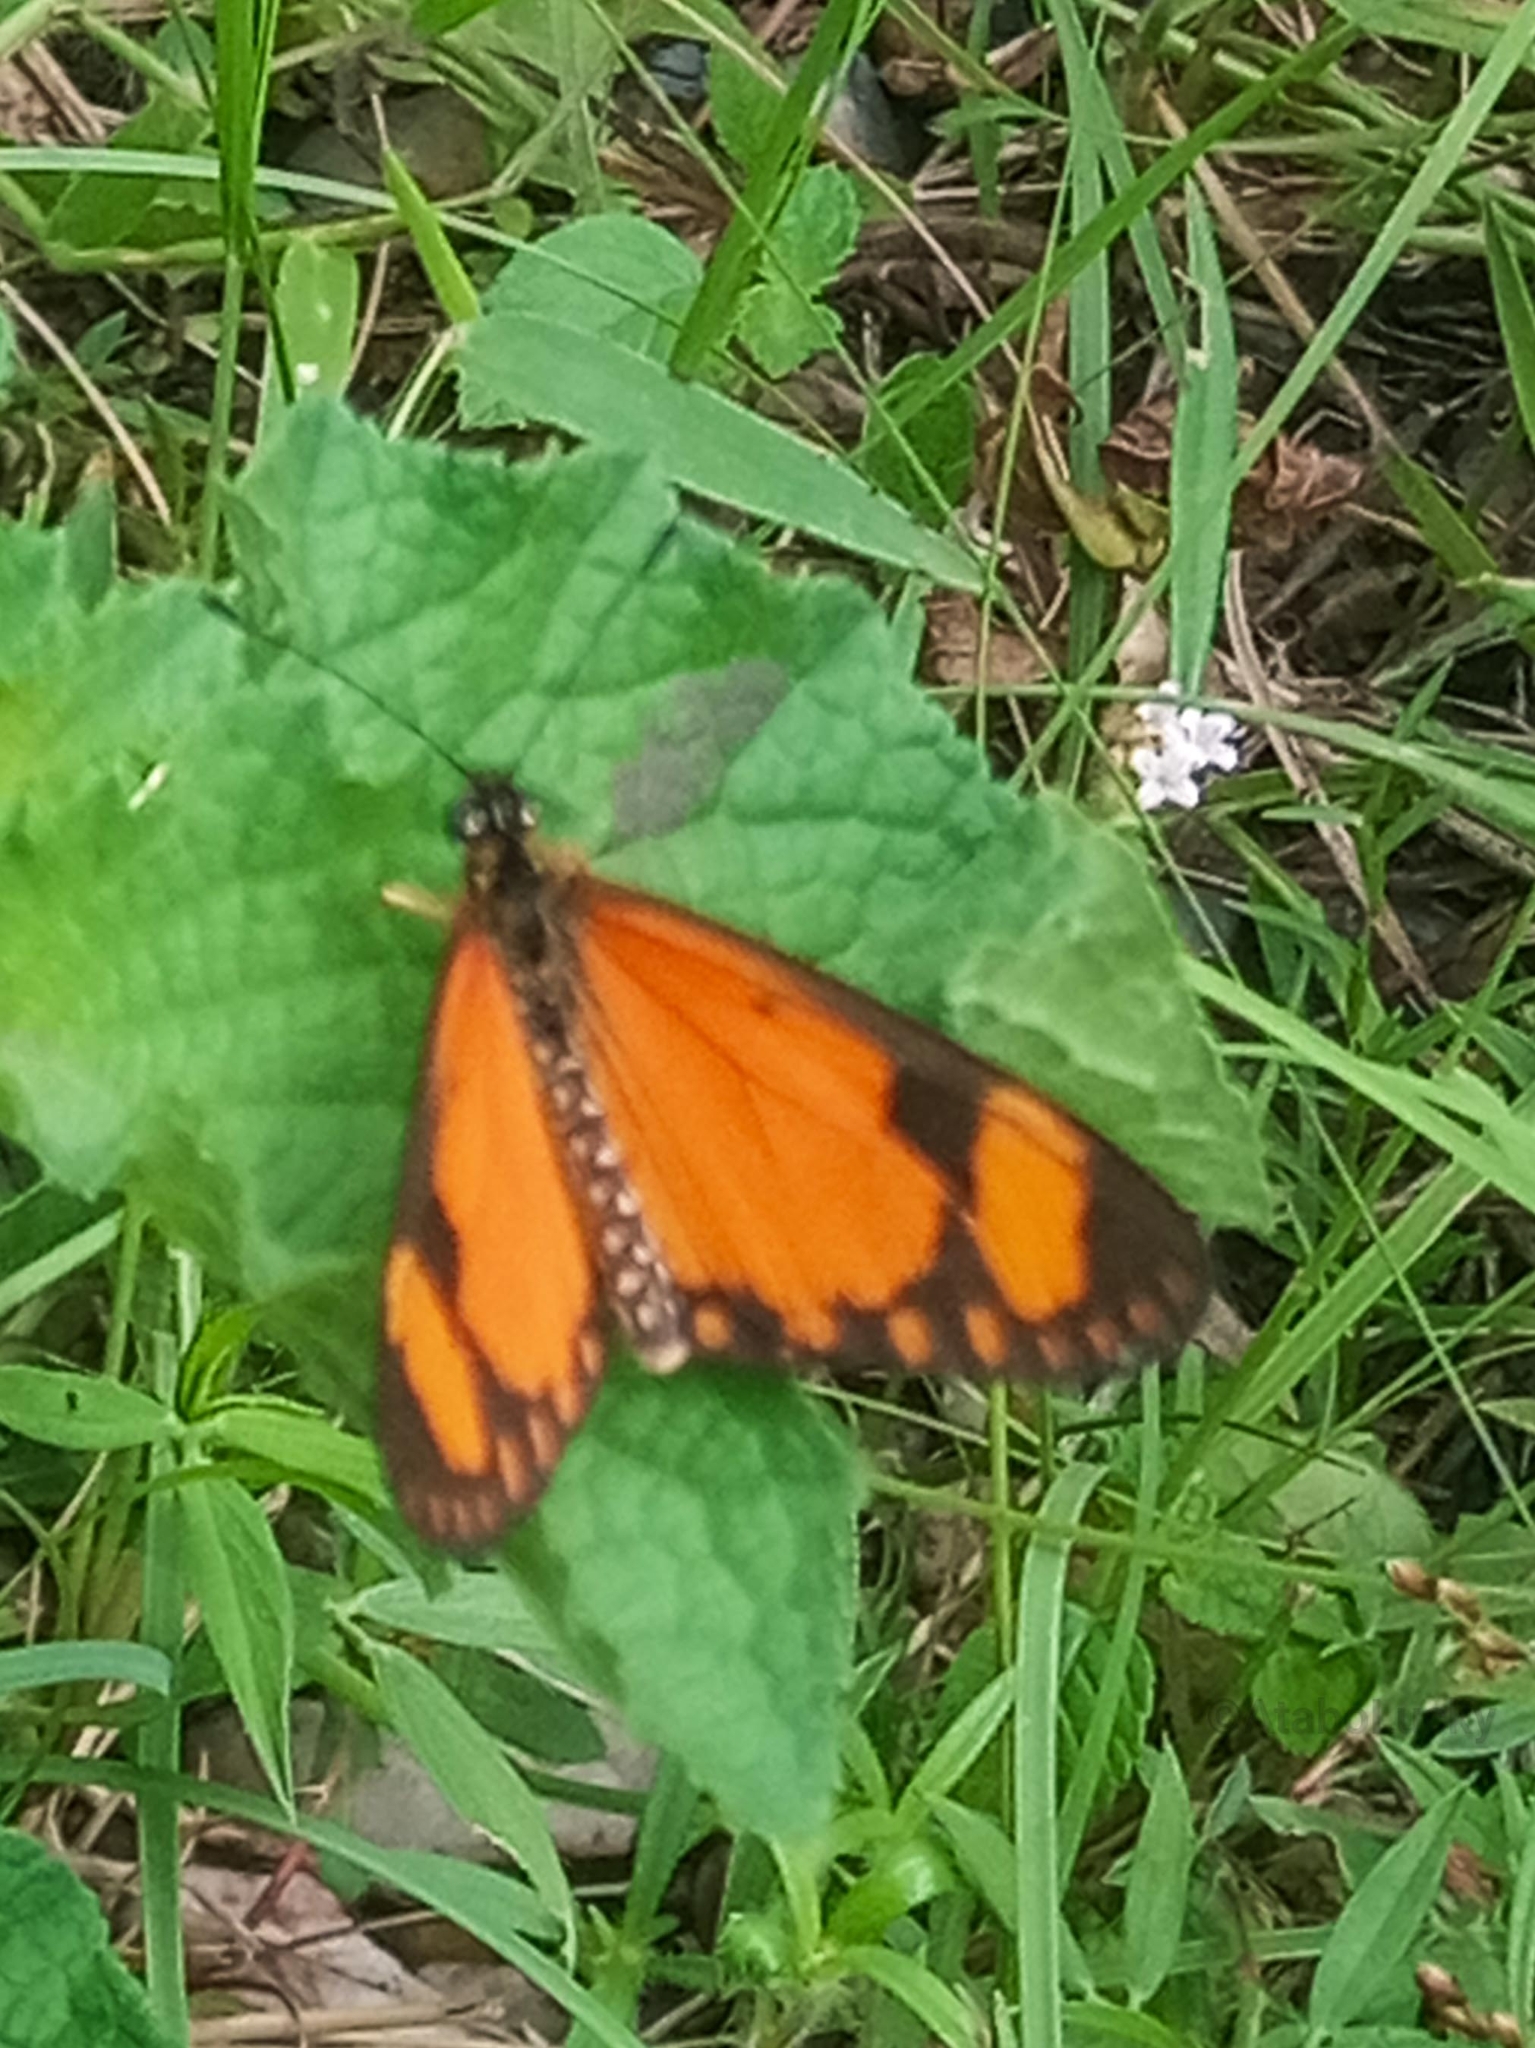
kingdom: Animalia
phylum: Arthropoda
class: Insecta
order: Lepidoptera
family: Nymphalidae
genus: Acraea
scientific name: Acraea Telchinia serena
